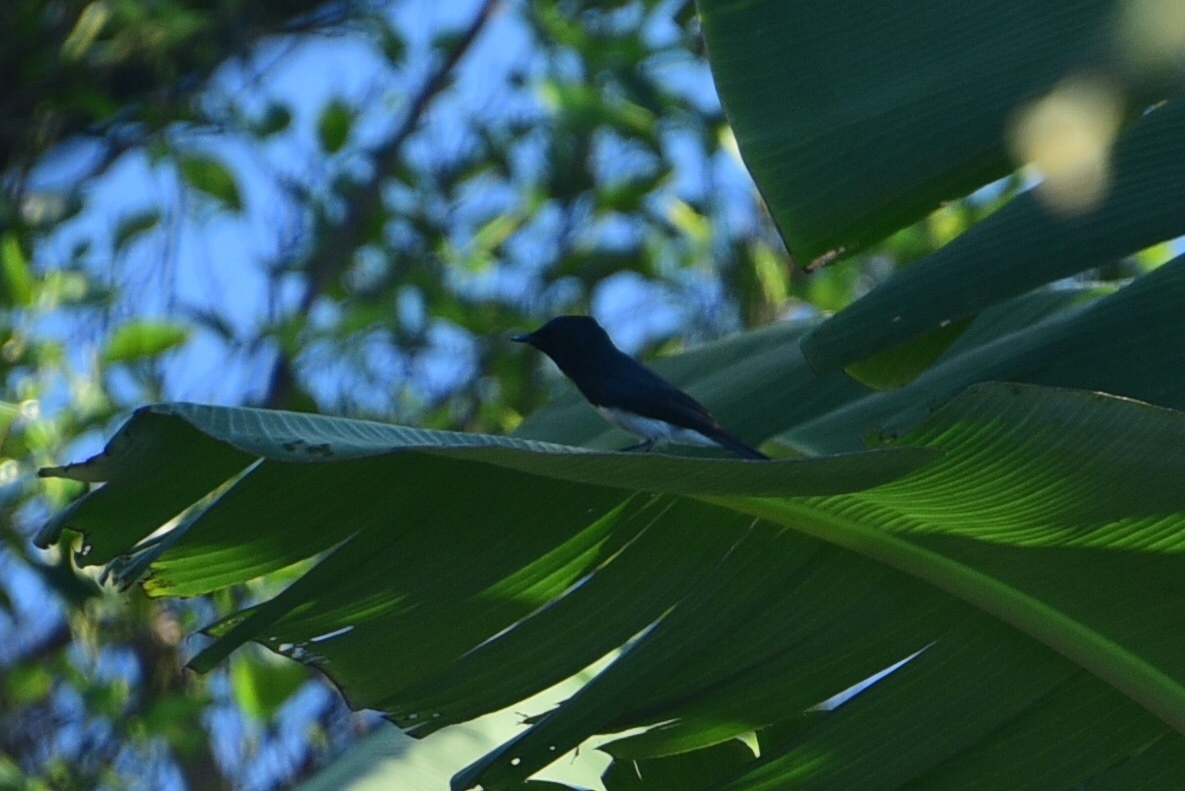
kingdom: Animalia
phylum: Chordata
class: Aves
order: Passeriformes
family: Monarchidae
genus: Myiagra
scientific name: Myiagra caledonica
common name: Melanesian flycatcher
